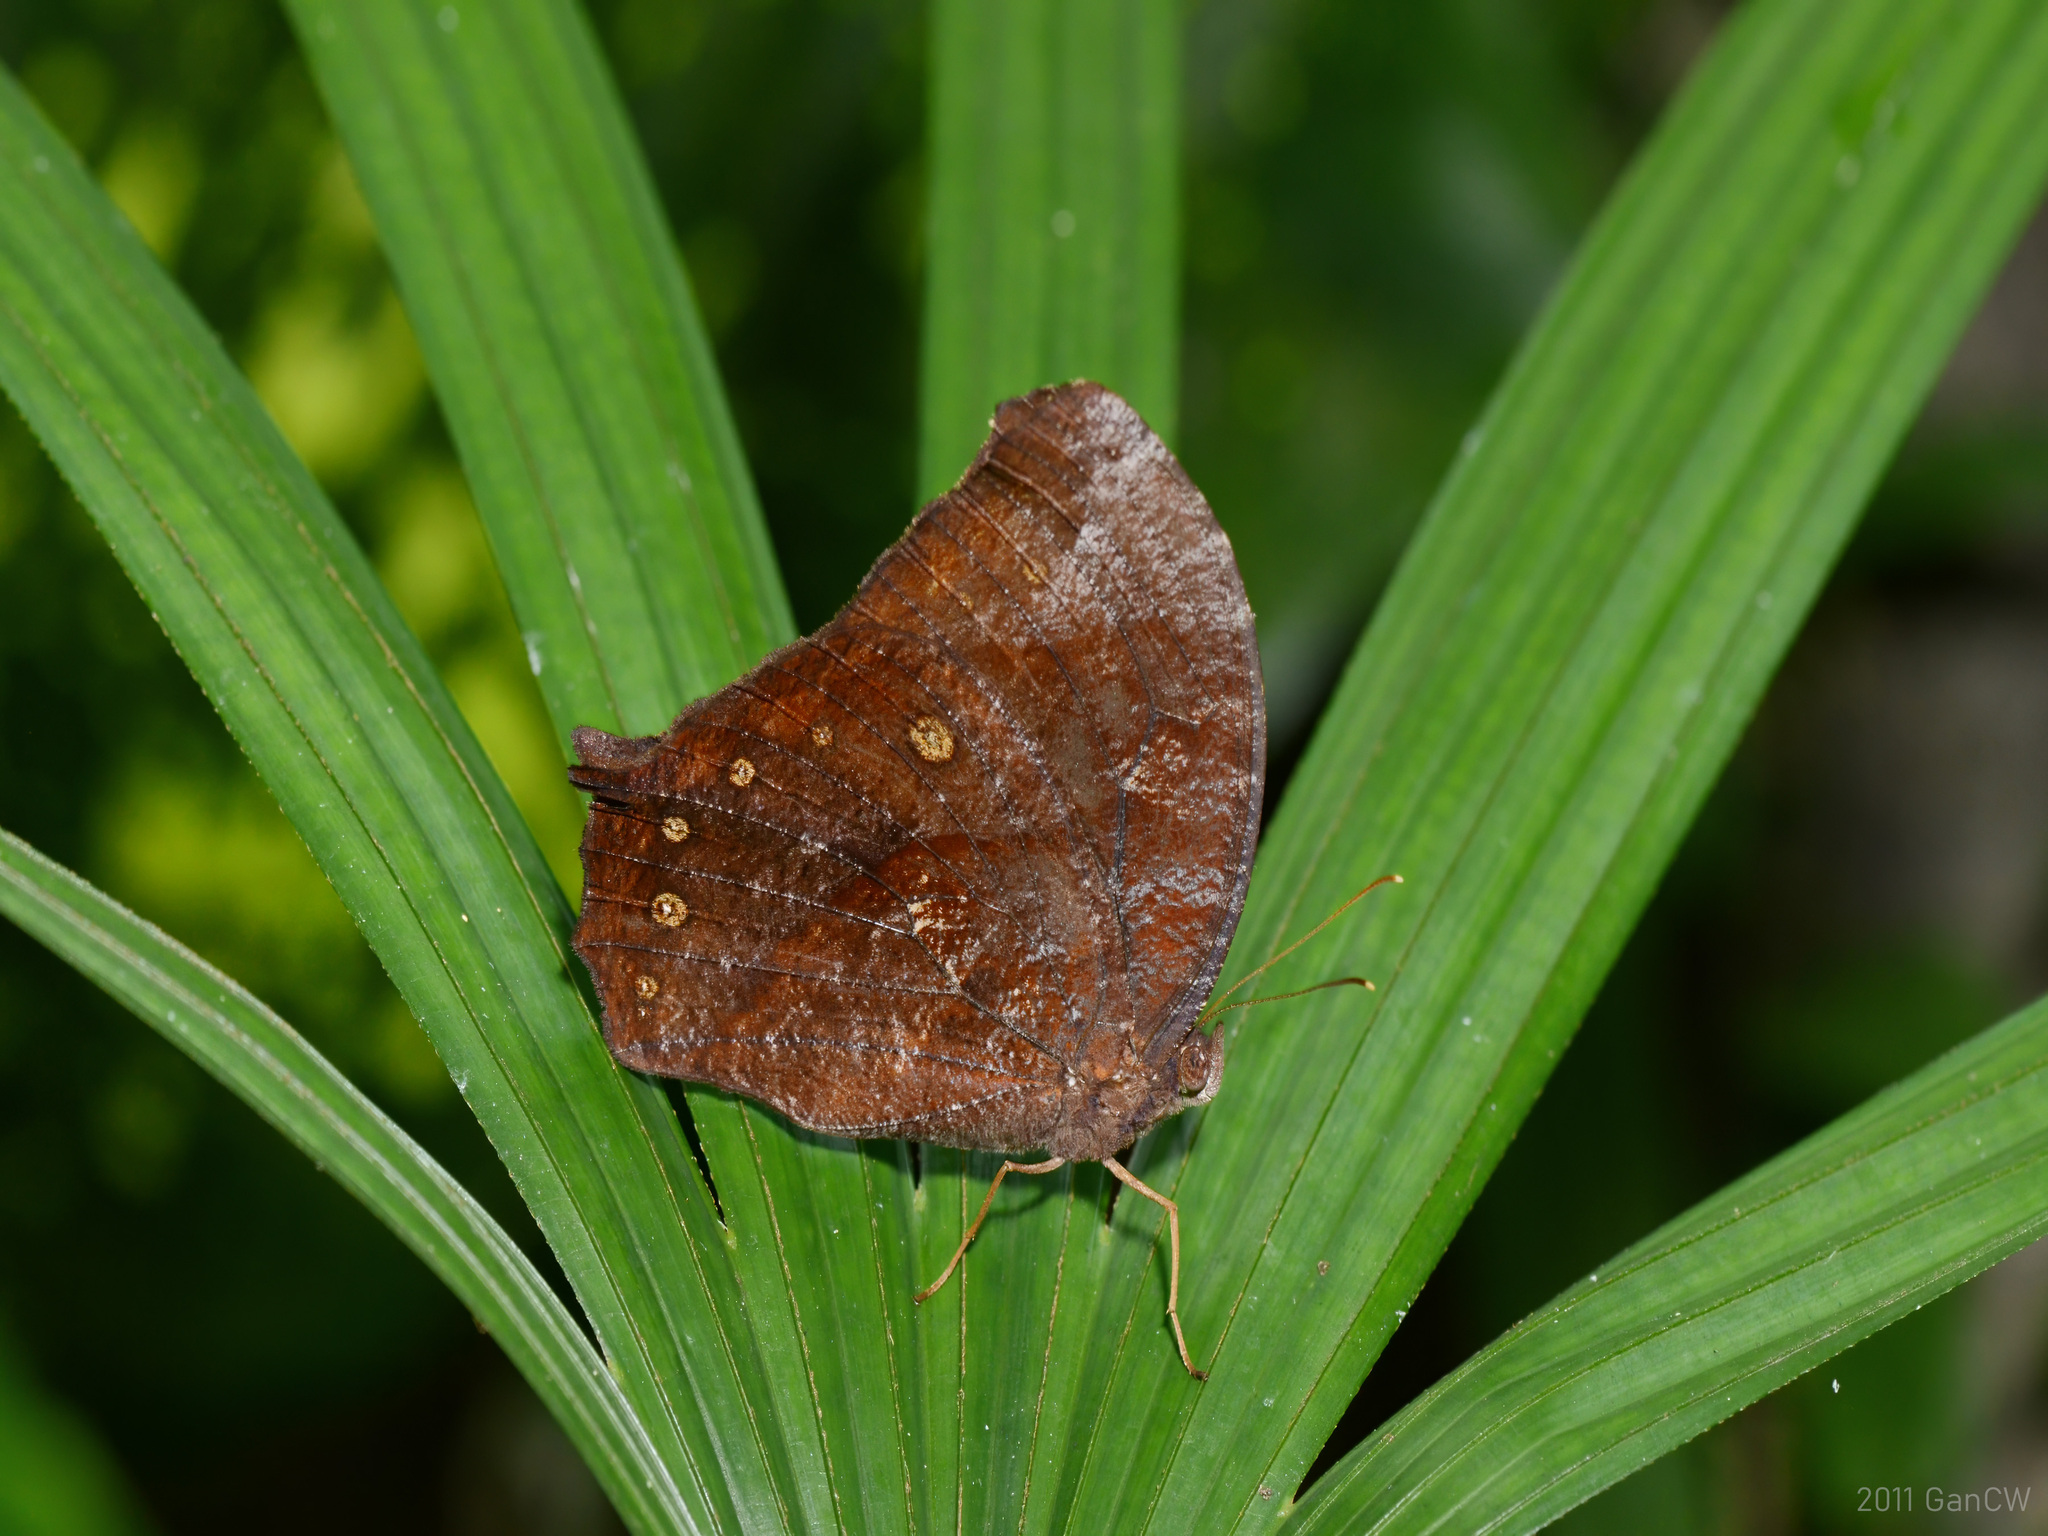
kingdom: Animalia
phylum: Arthropoda
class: Insecta
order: Lepidoptera
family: Nymphalidae
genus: Melanitis
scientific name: Melanitis phedima
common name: Dark evening brown
